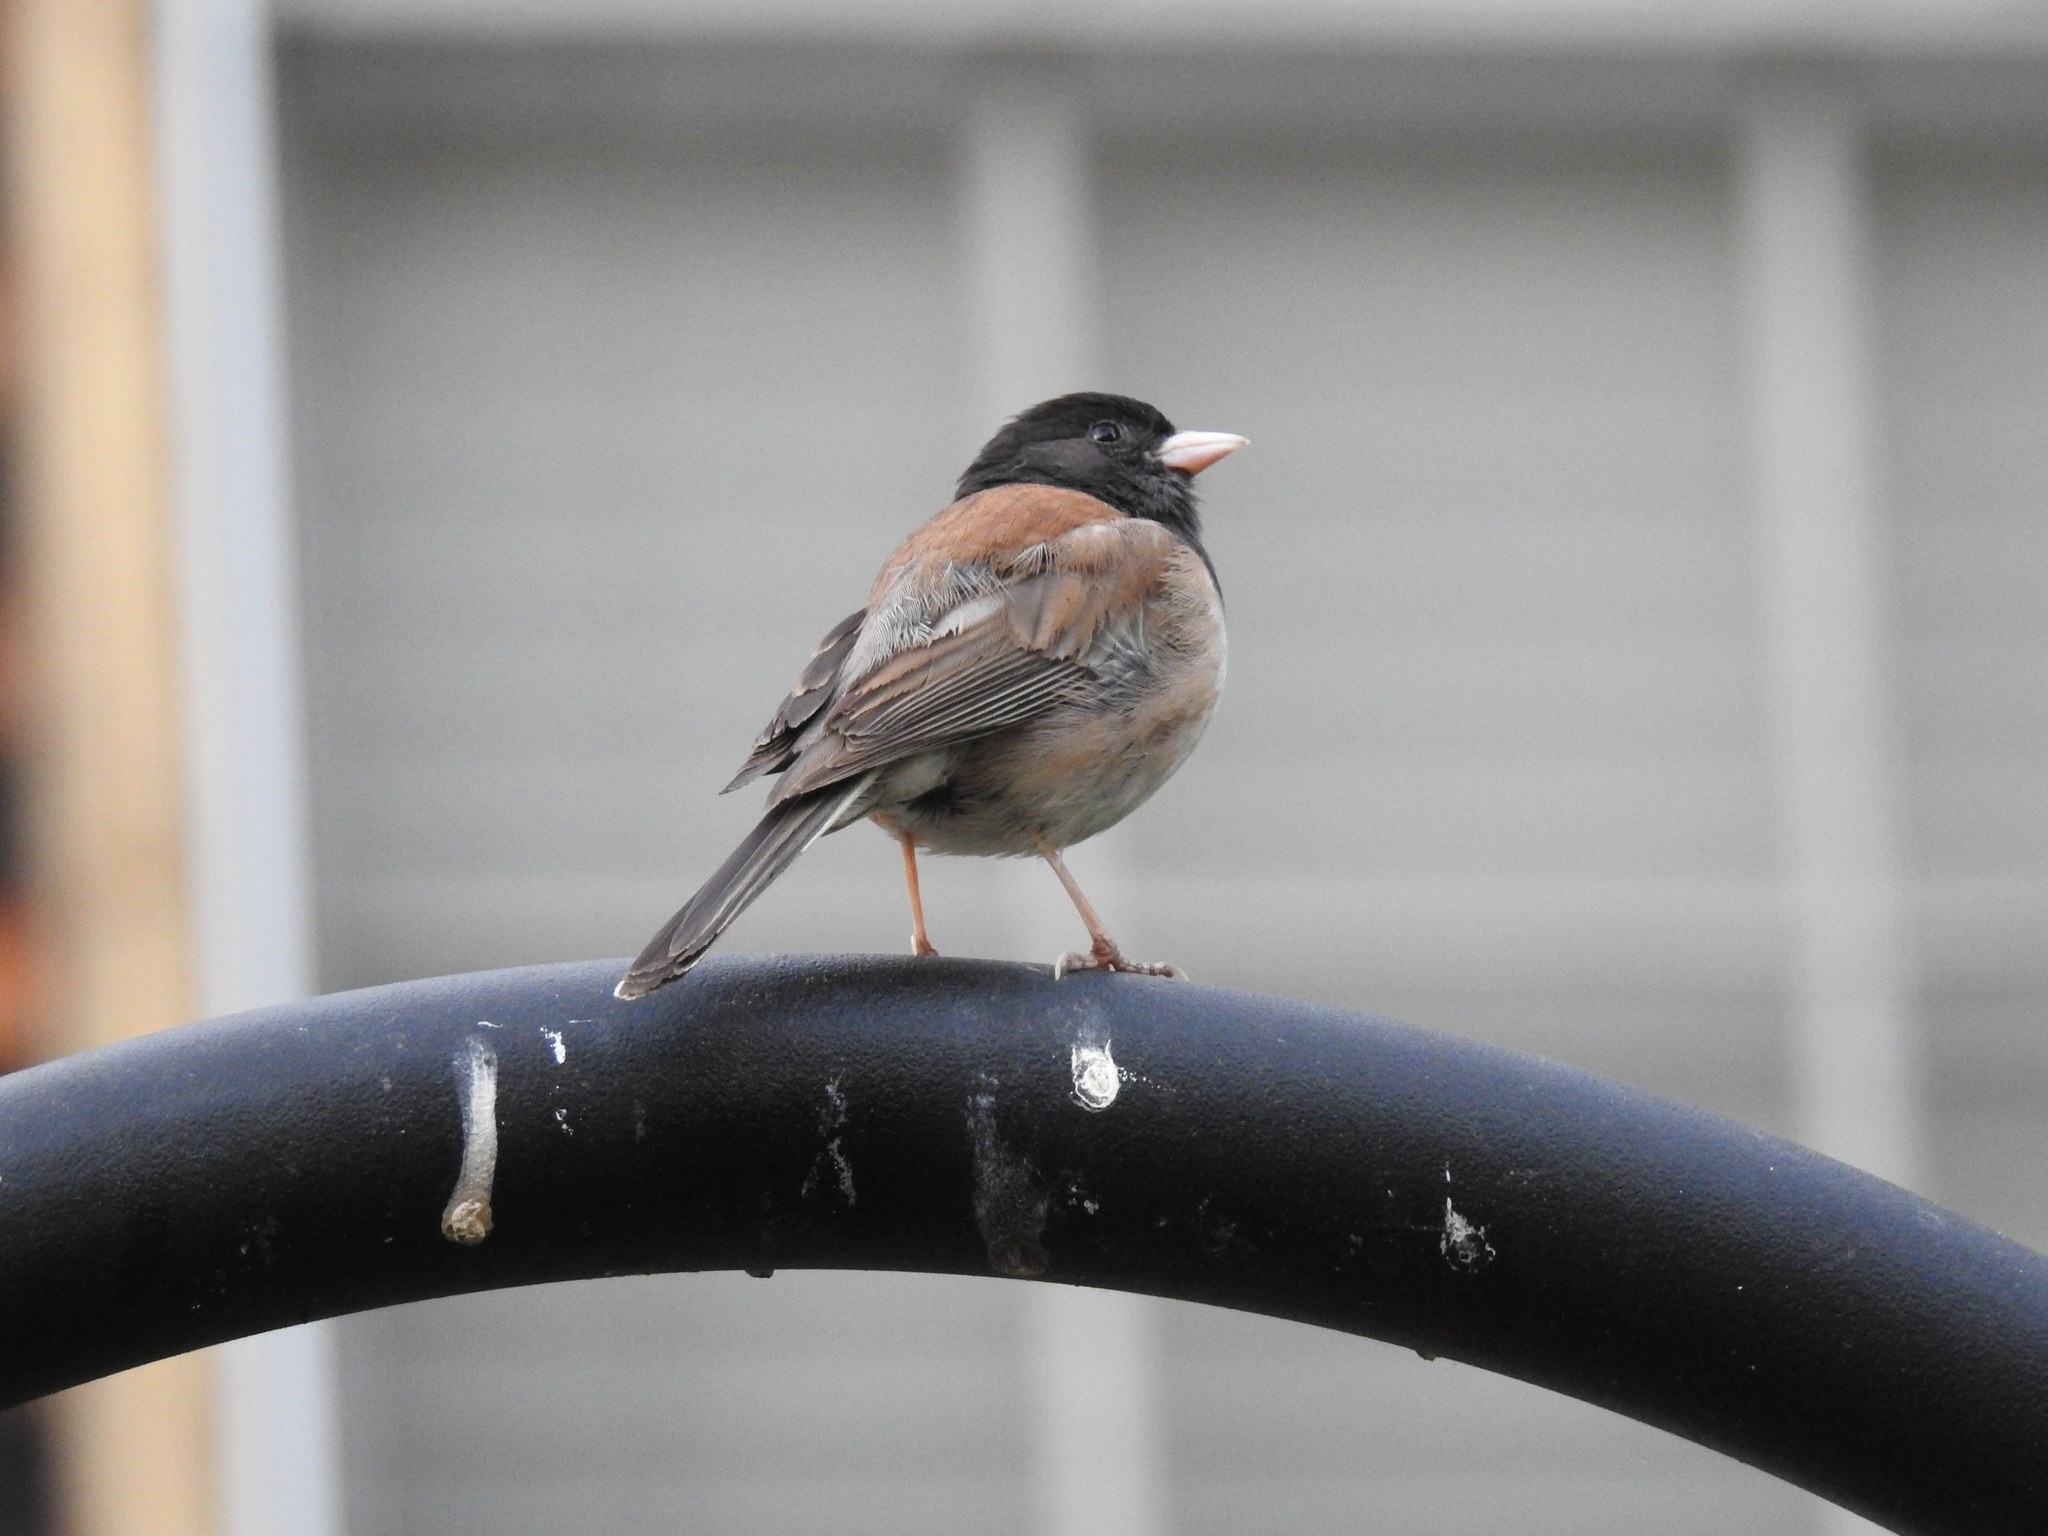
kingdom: Animalia
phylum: Chordata
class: Aves
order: Passeriformes
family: Passerellidae
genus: Junco
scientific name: Junco hyemalis
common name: Dark-eyed junco
